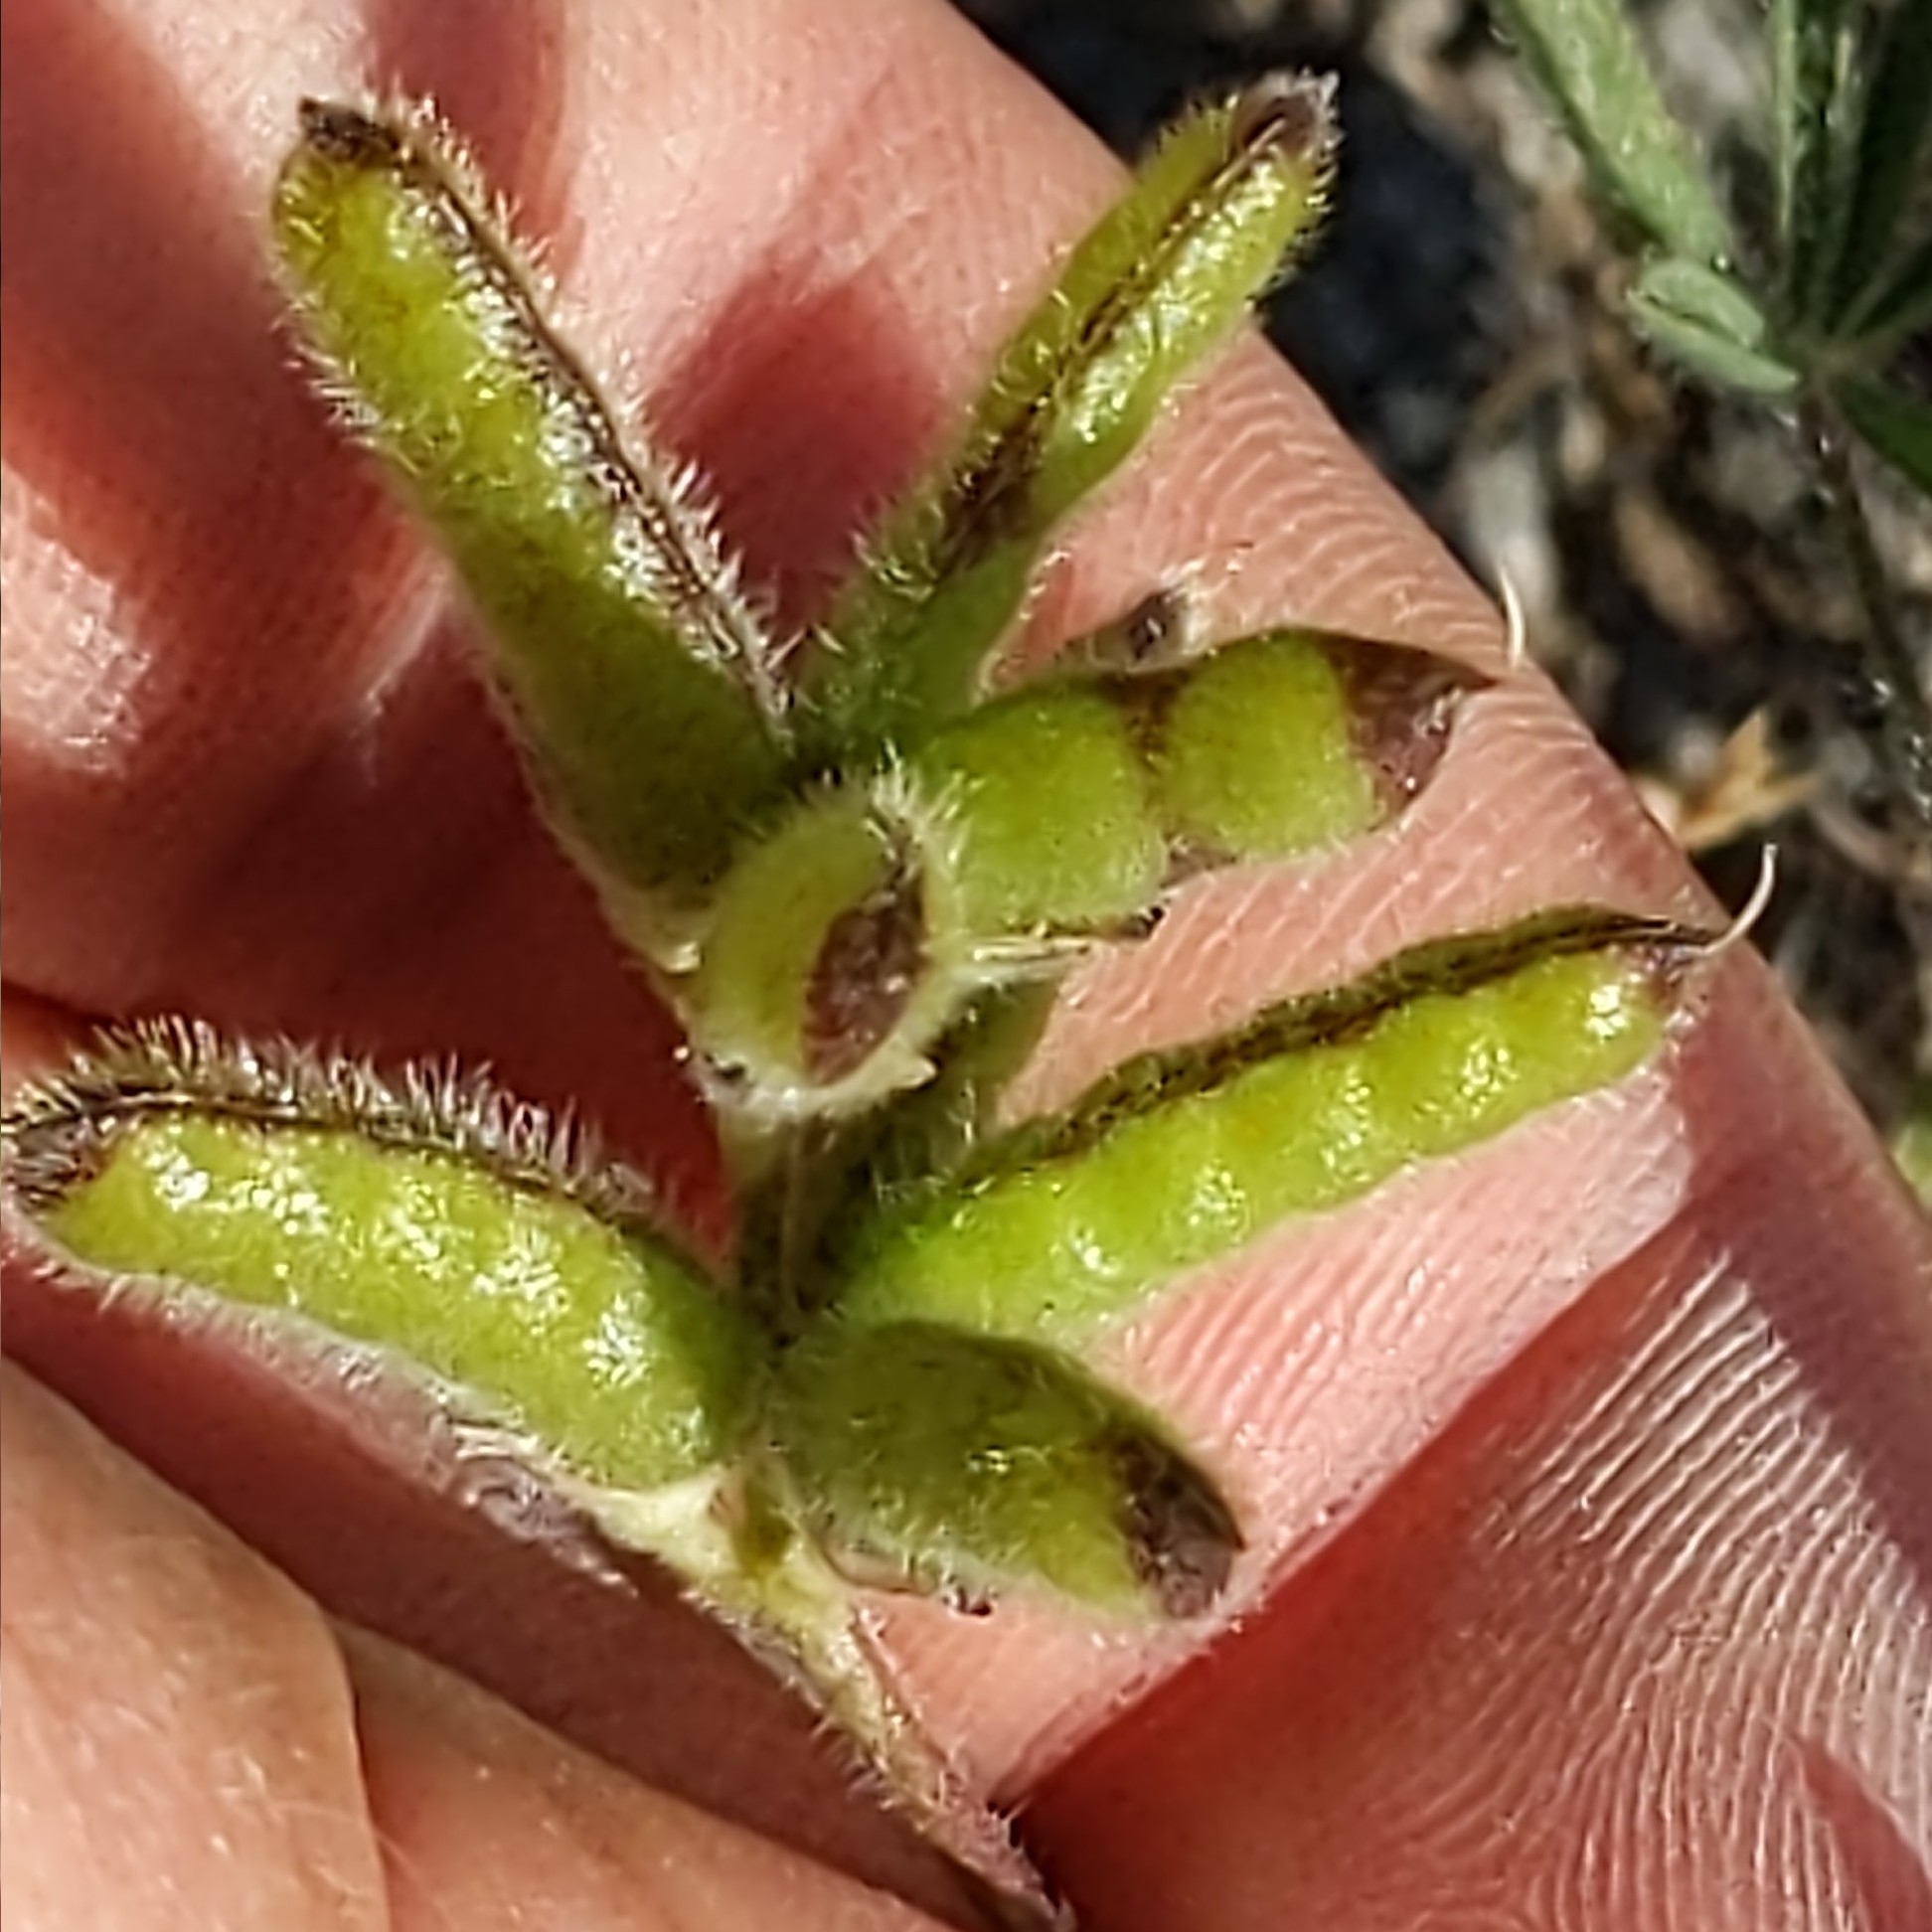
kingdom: Plantae
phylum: Tracheophyta
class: Magnoliopsida
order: Fabales
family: Fabaceae
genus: Lupinus
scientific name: Lupinus bicolor
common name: Miniature lupine
